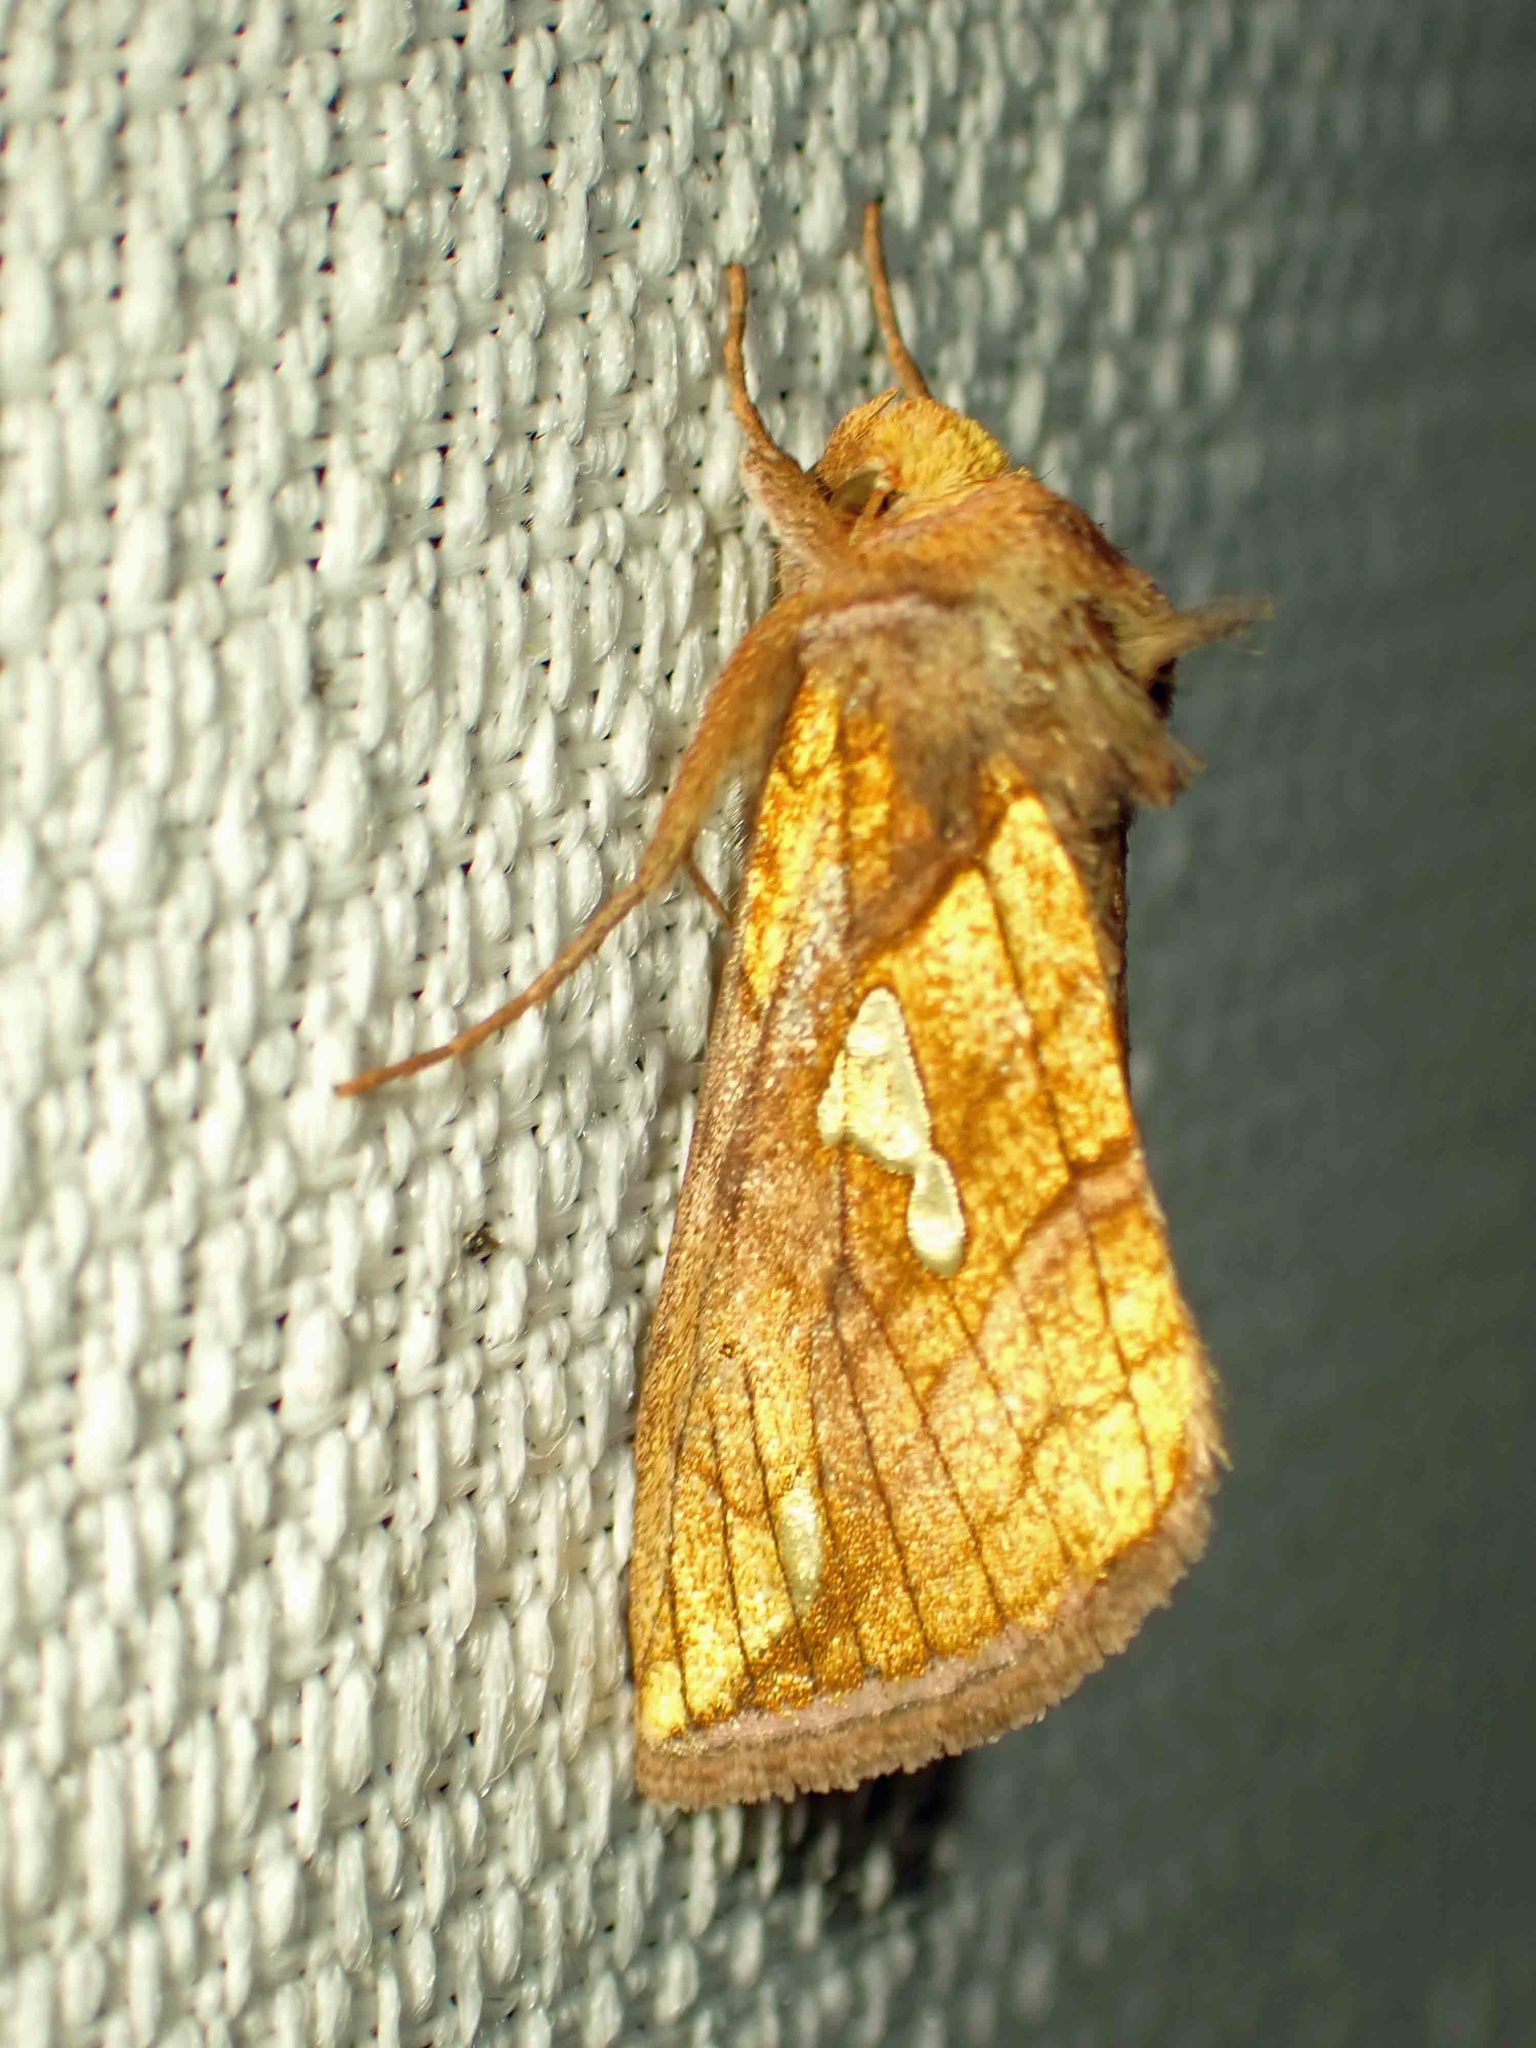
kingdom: Animalia
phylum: Arthropoda
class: Insecta
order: Lepidoptera
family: Noctuidae
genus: Plusia
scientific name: Plusia putnami
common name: Lempke's gold spot
